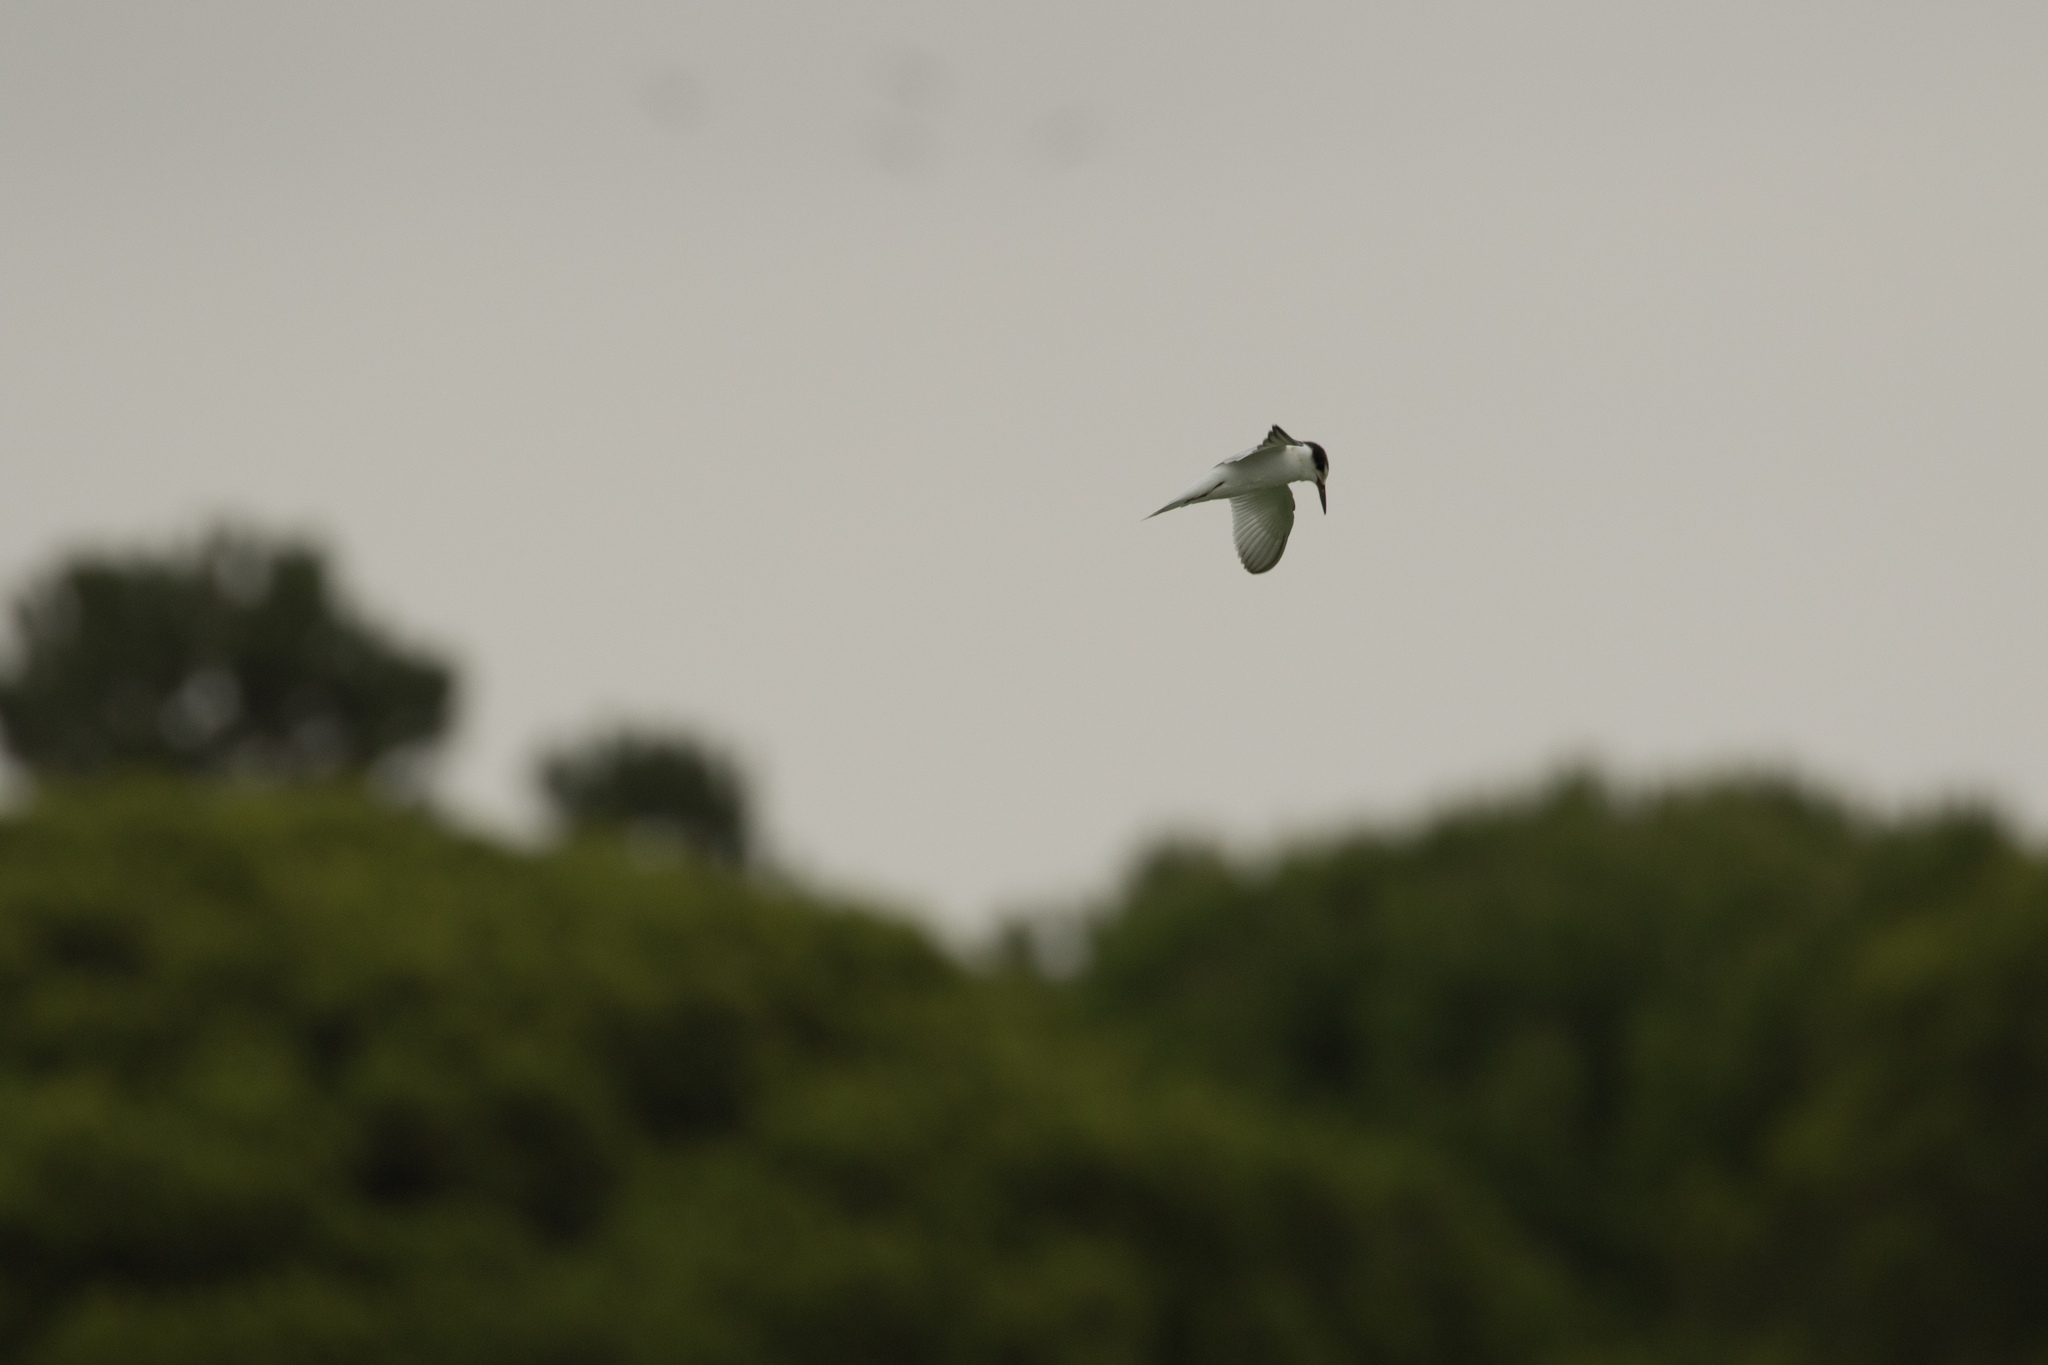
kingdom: Animalia
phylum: Chordata
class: Aves
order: Charadriiformes
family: Laridae
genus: Sternula
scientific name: Sternula albifrons
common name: Little tern
